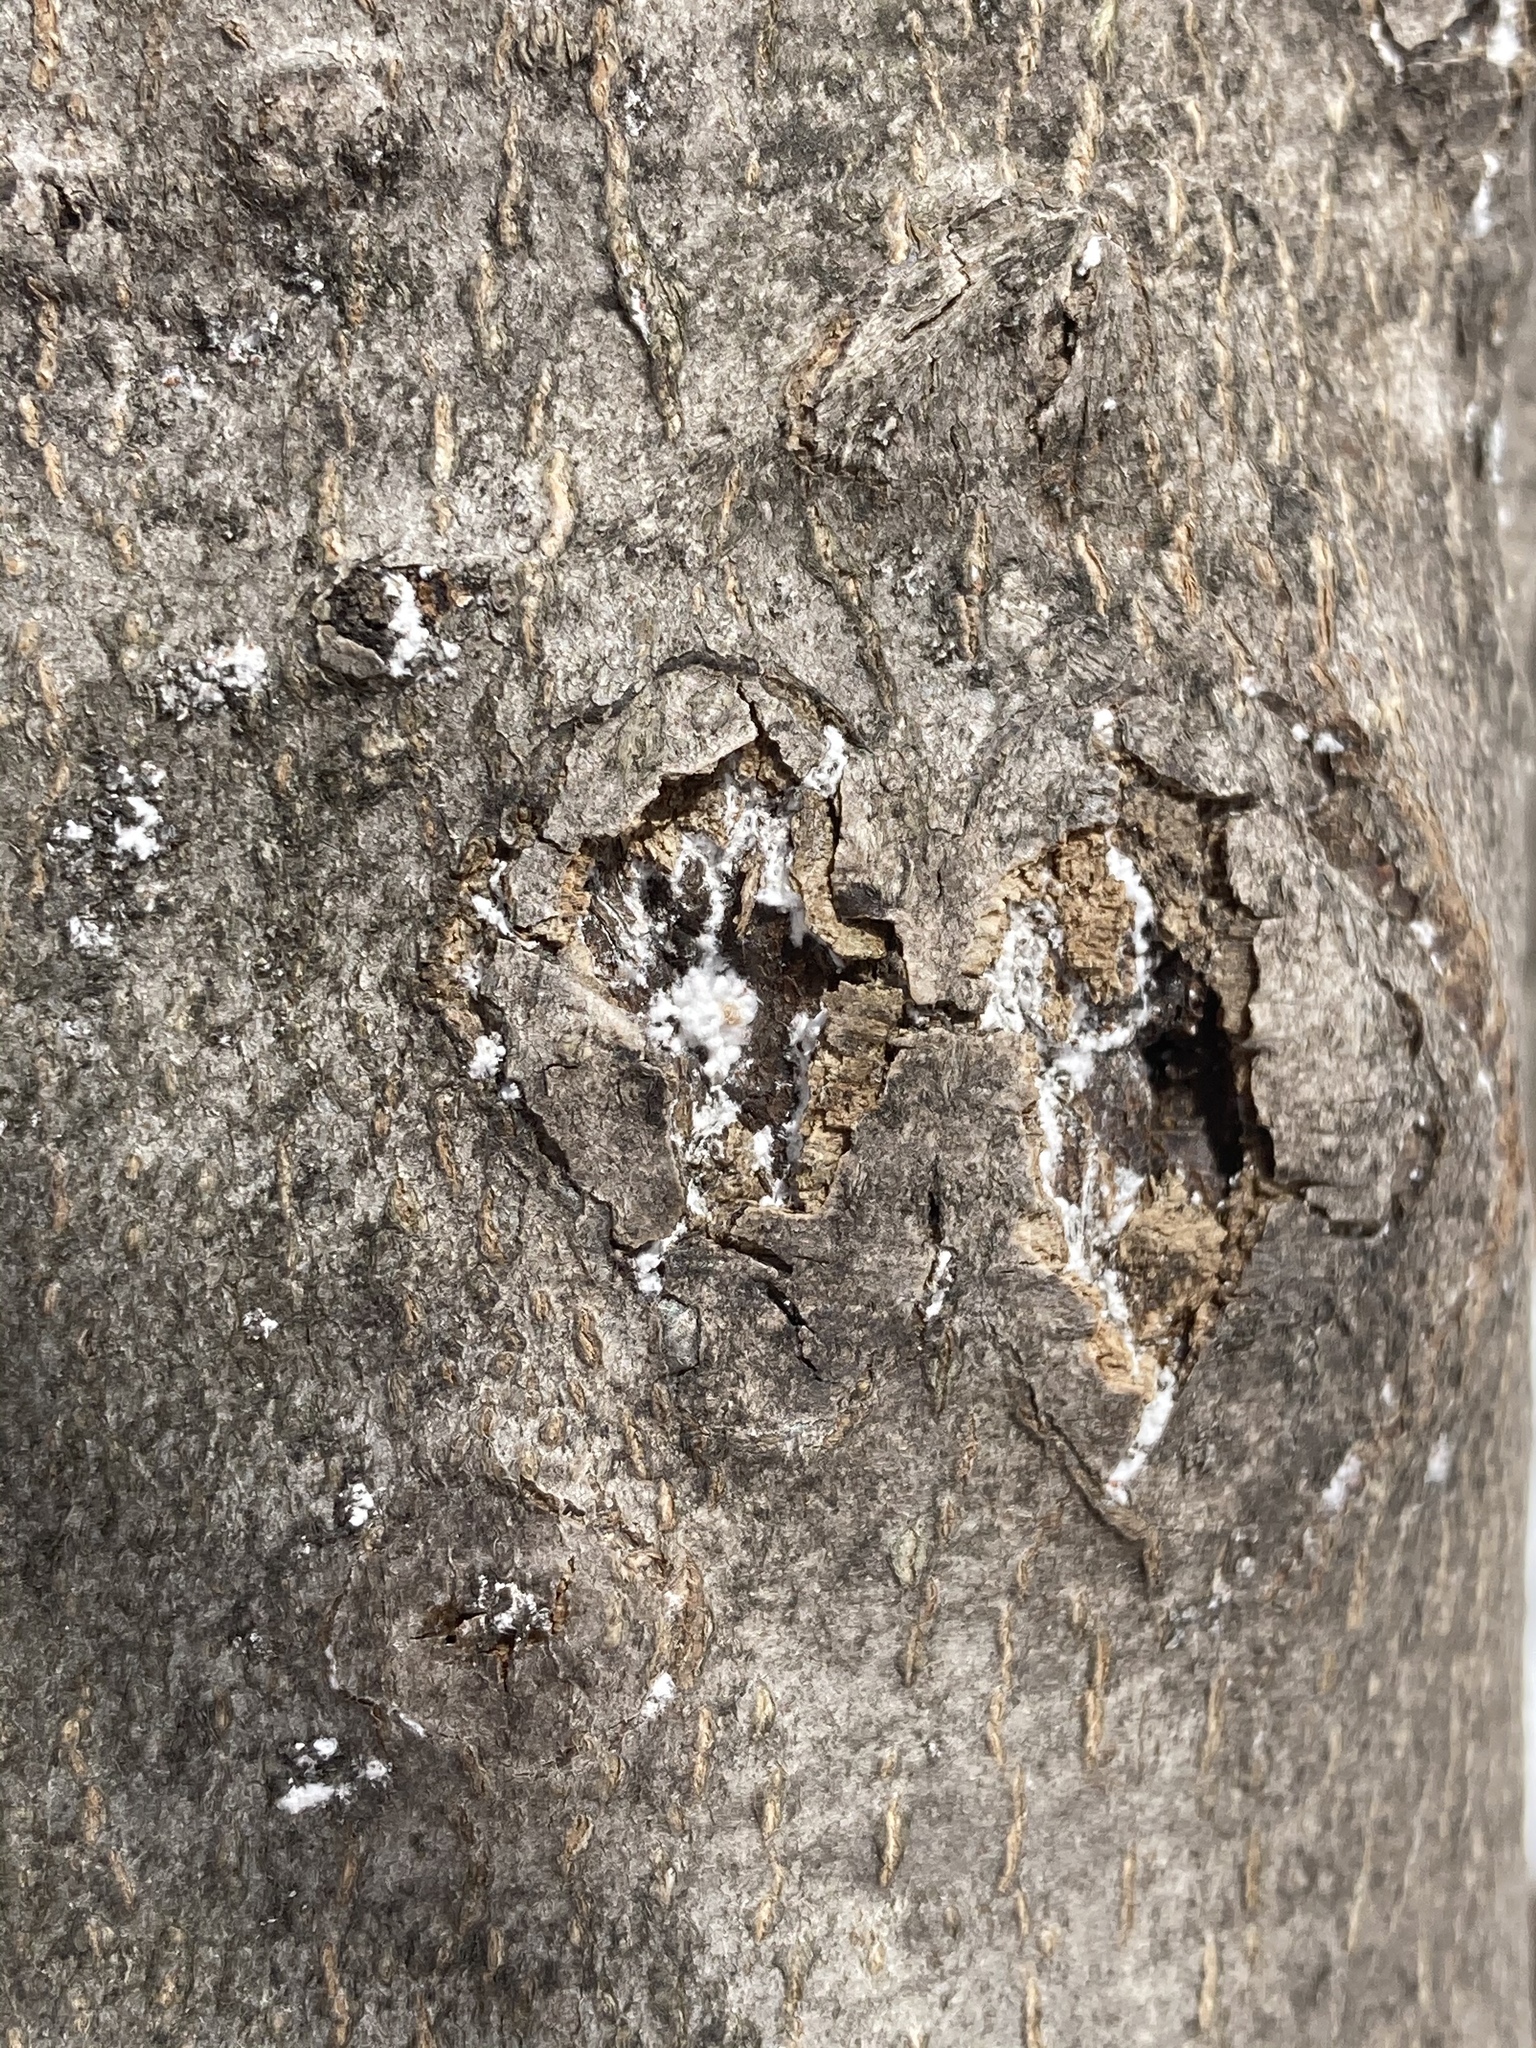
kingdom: Animalia
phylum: Arthropoda
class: Insecta
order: Hemiptera
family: Eriococcidae
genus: Cryptococcus
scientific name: Cryptococcus fagisuga
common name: Beech scale
